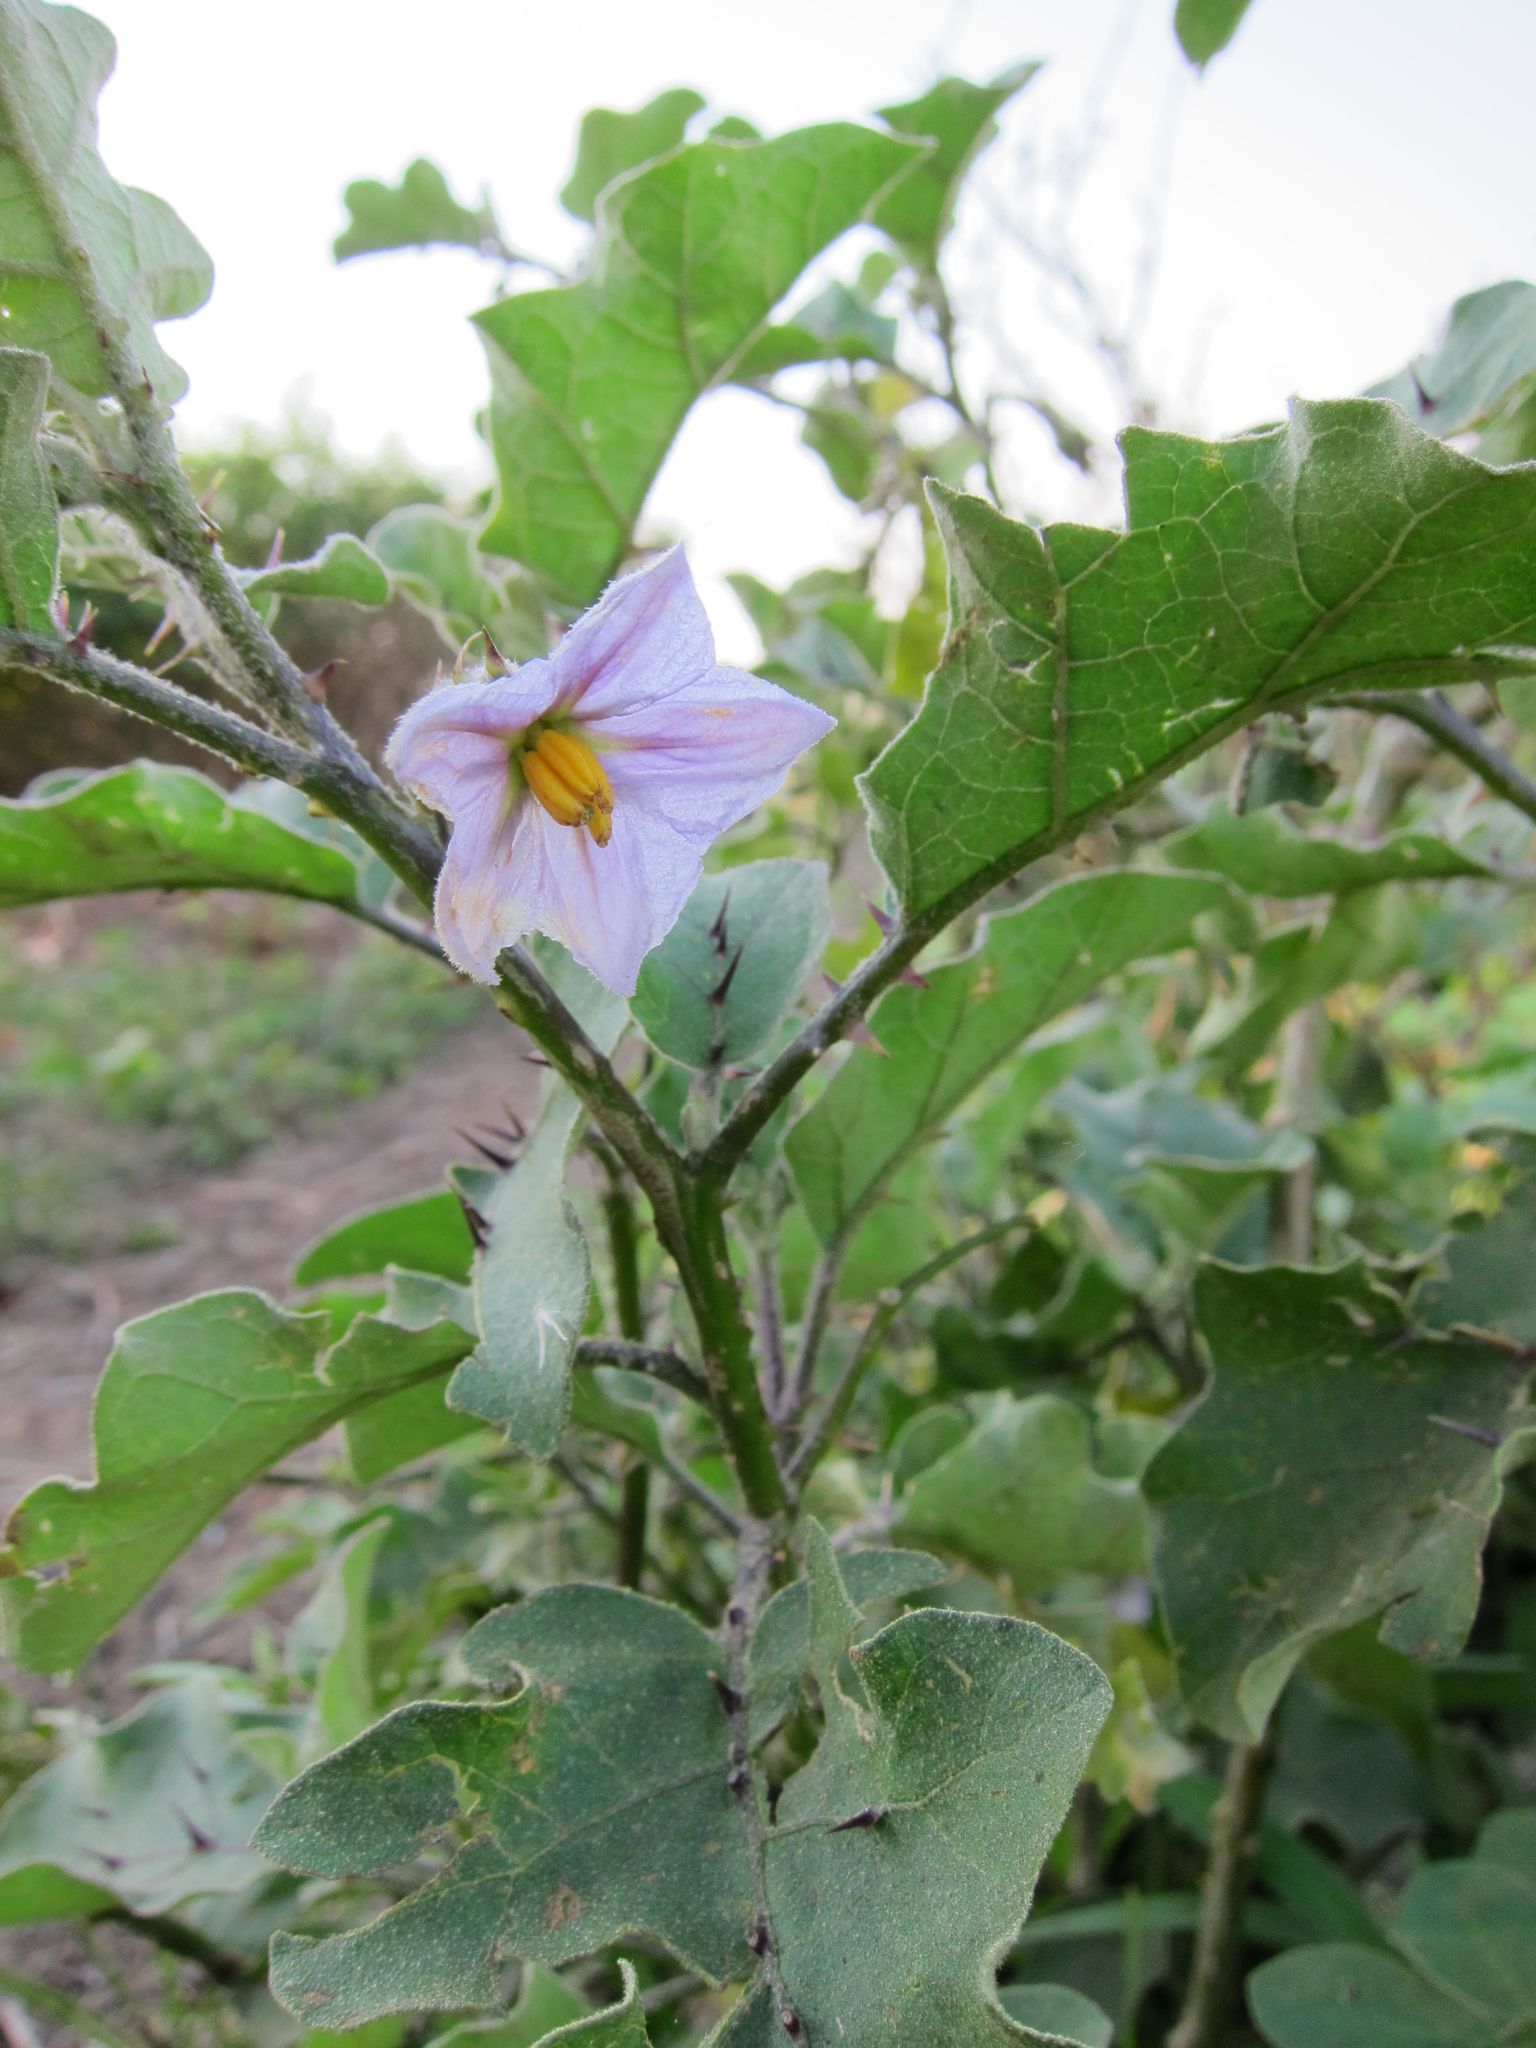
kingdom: Plantae
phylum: Tracheophyta
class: Magnoliopsida
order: Solanales
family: Solanaceae
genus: Solanum
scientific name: Solanum insanum
